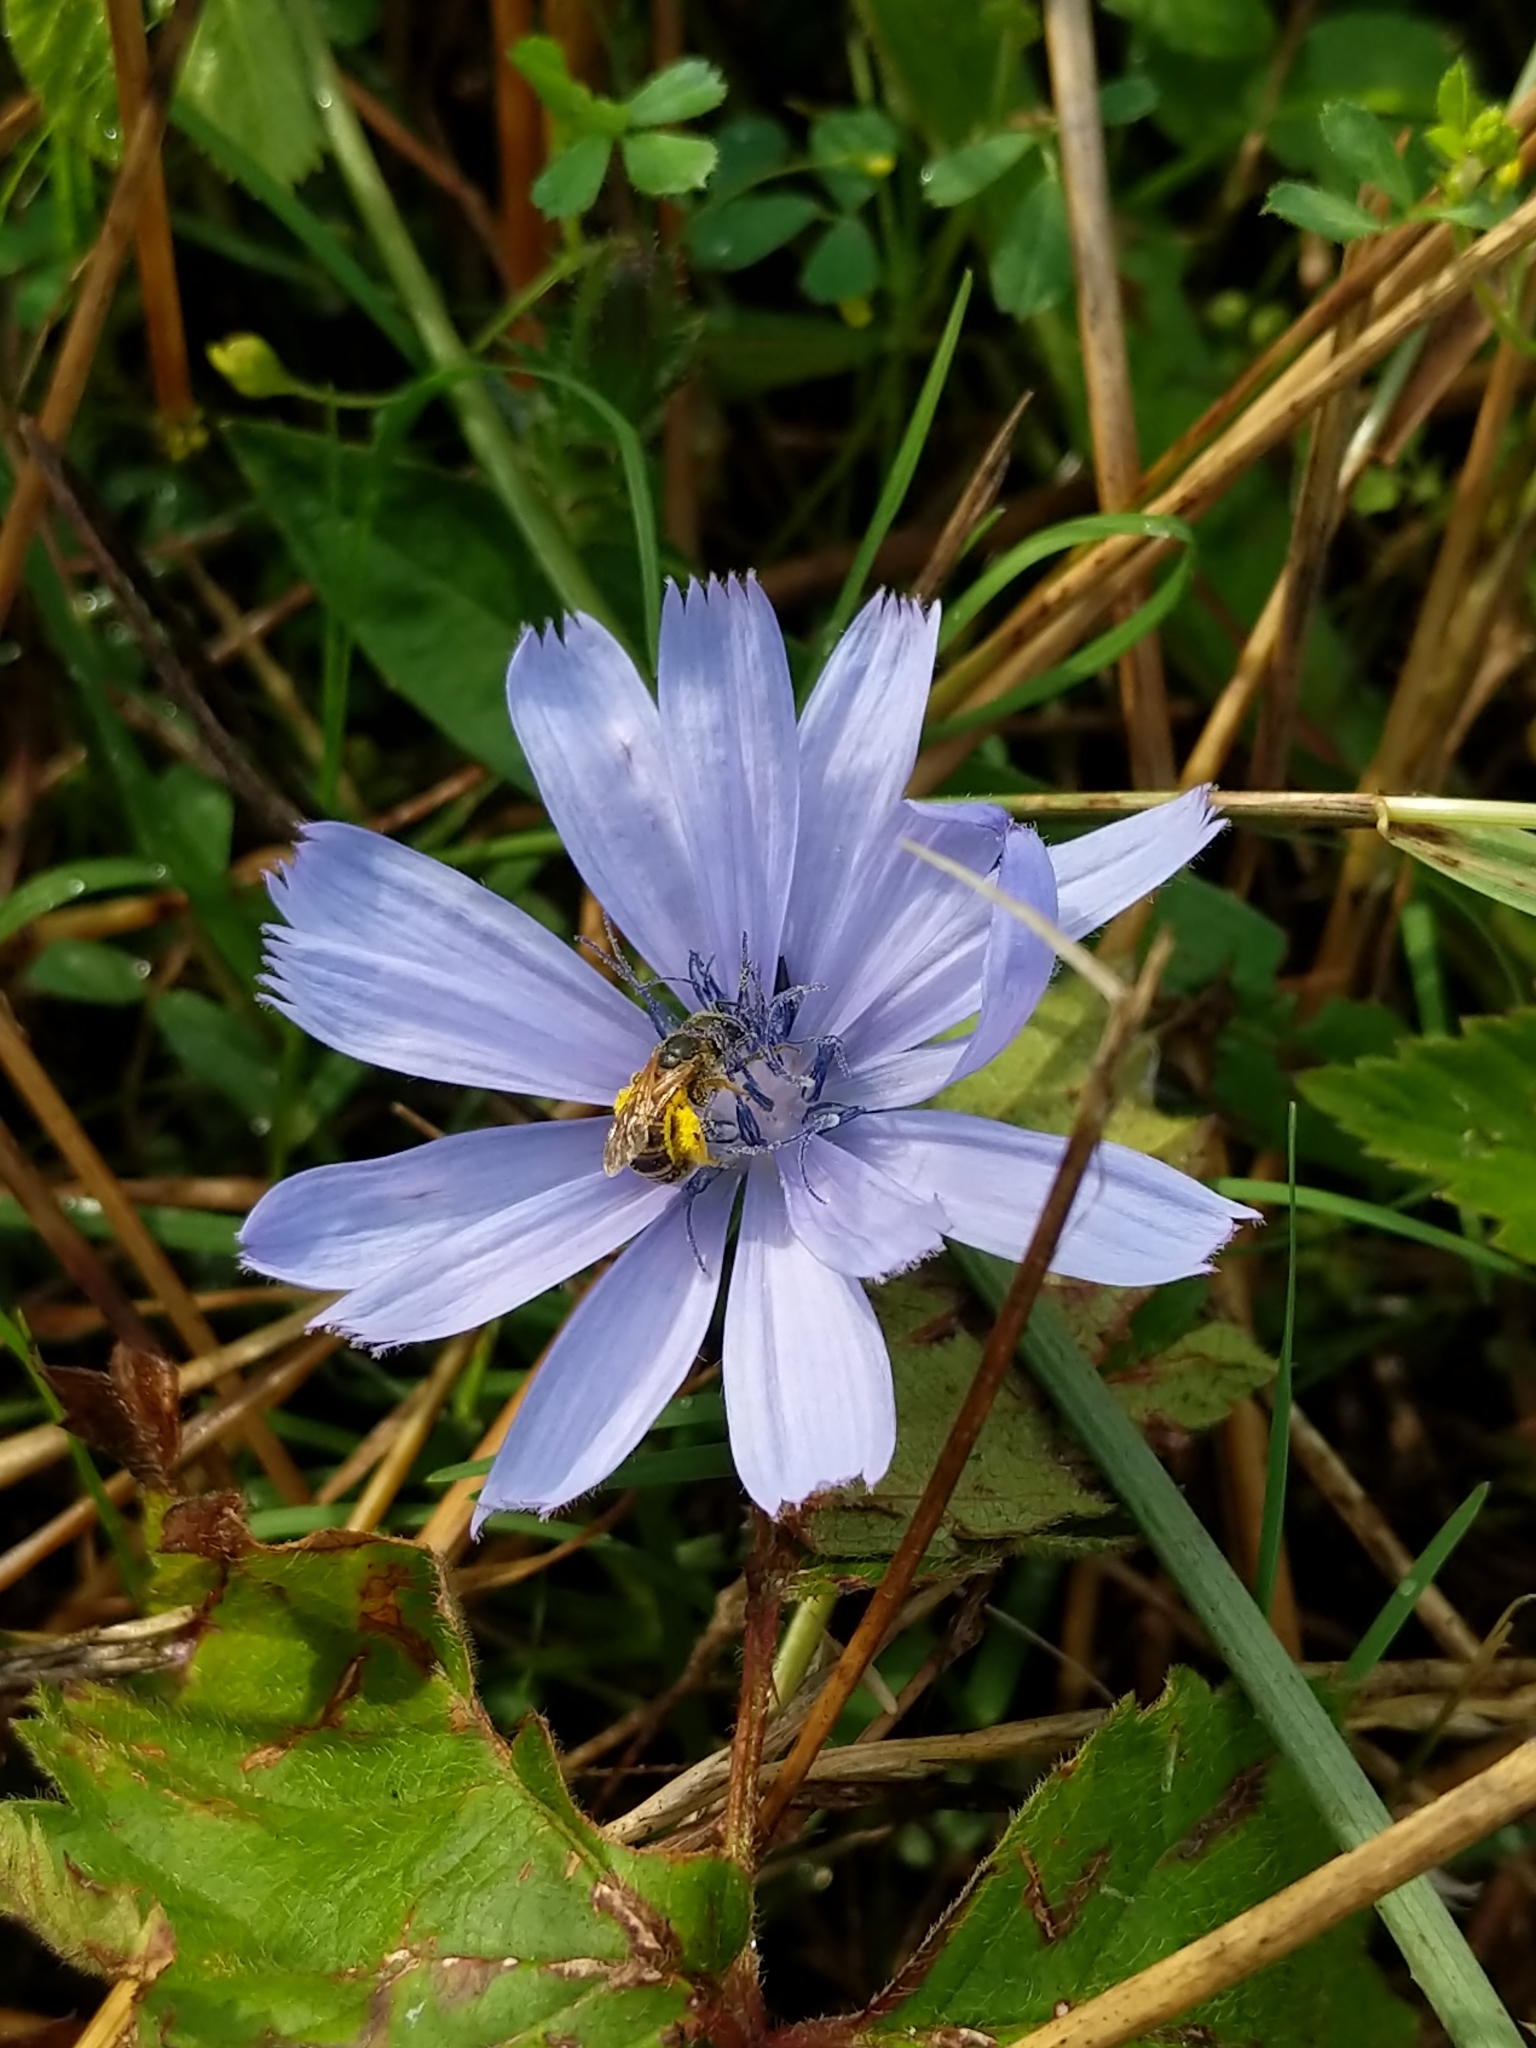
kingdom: Plantae
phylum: Tracheophyta
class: Magnoliopsida
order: Asterales
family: Asteraceae
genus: Cichorium
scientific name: Cichorium intybus
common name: Chicory
